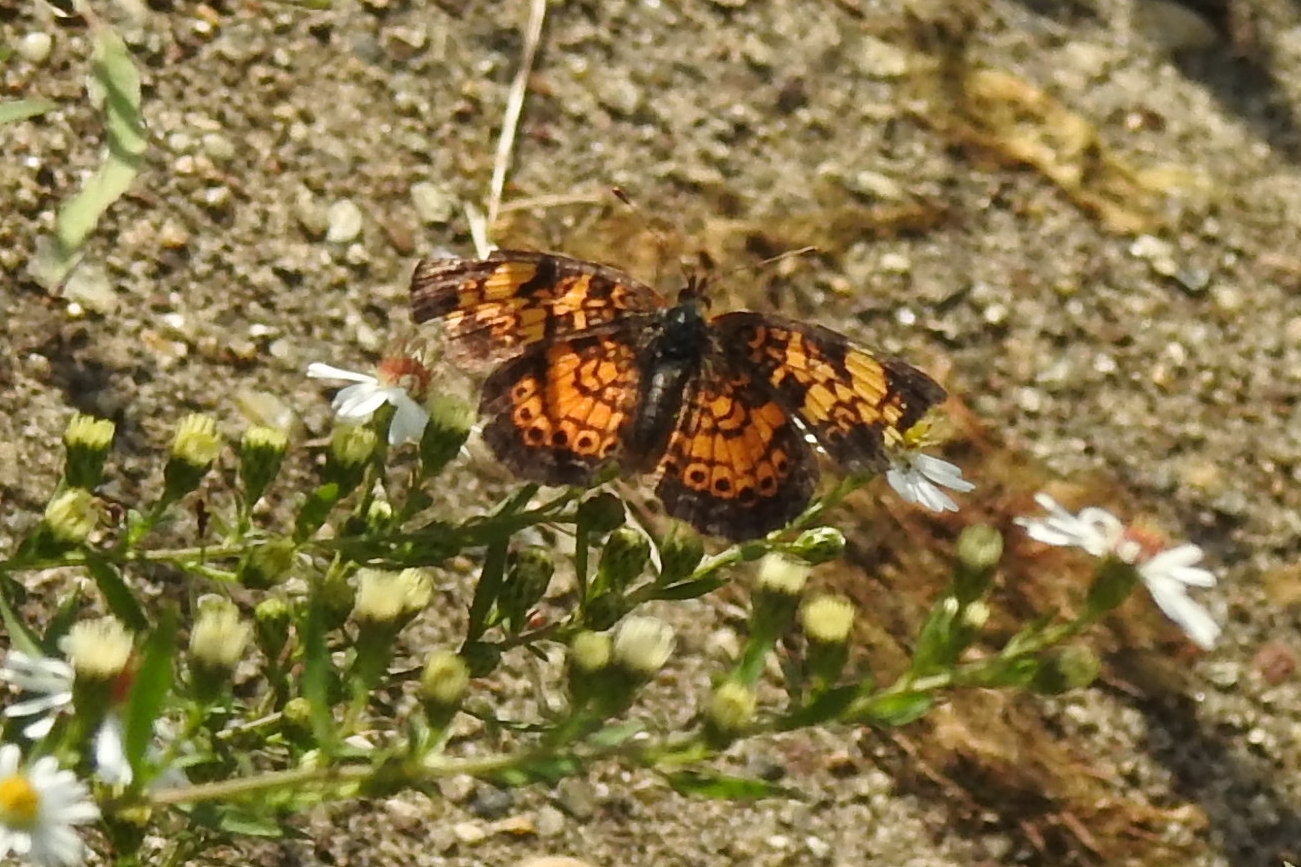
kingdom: Animalia
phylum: Arthropoda
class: Insecta
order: Lepidoptera
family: Nymphalidae
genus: Phyciodes
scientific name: Phyciodes tharos
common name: Pearl crescent
